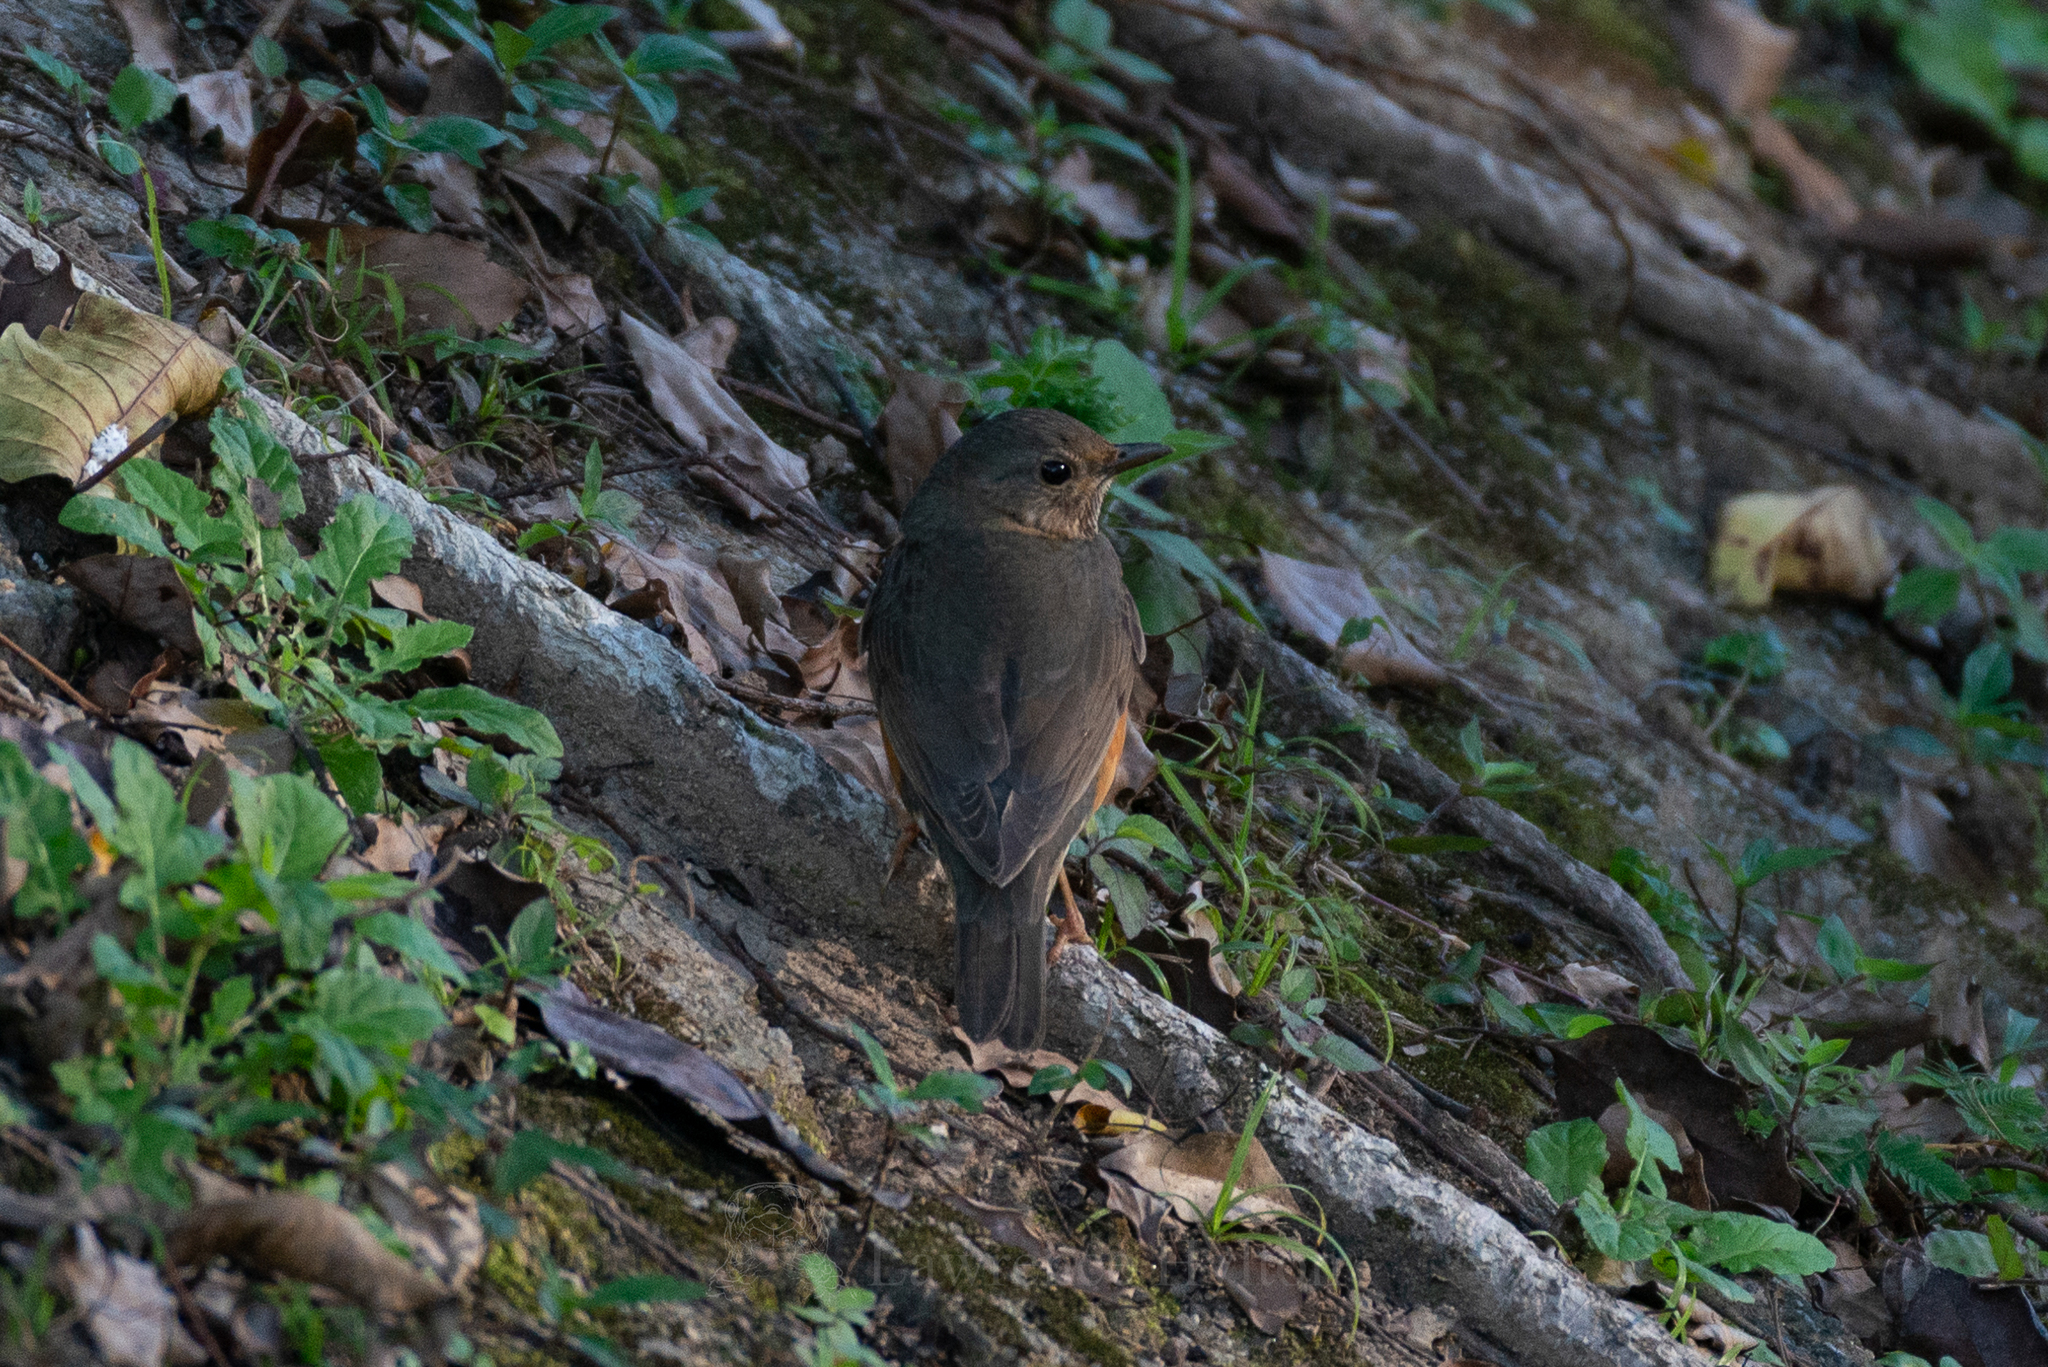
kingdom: Animalia
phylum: Chordata
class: Aves
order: Passeriformes
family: Turdidae
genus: Turdus
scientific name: Turdus hortulorum
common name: Grey-backed thrush
